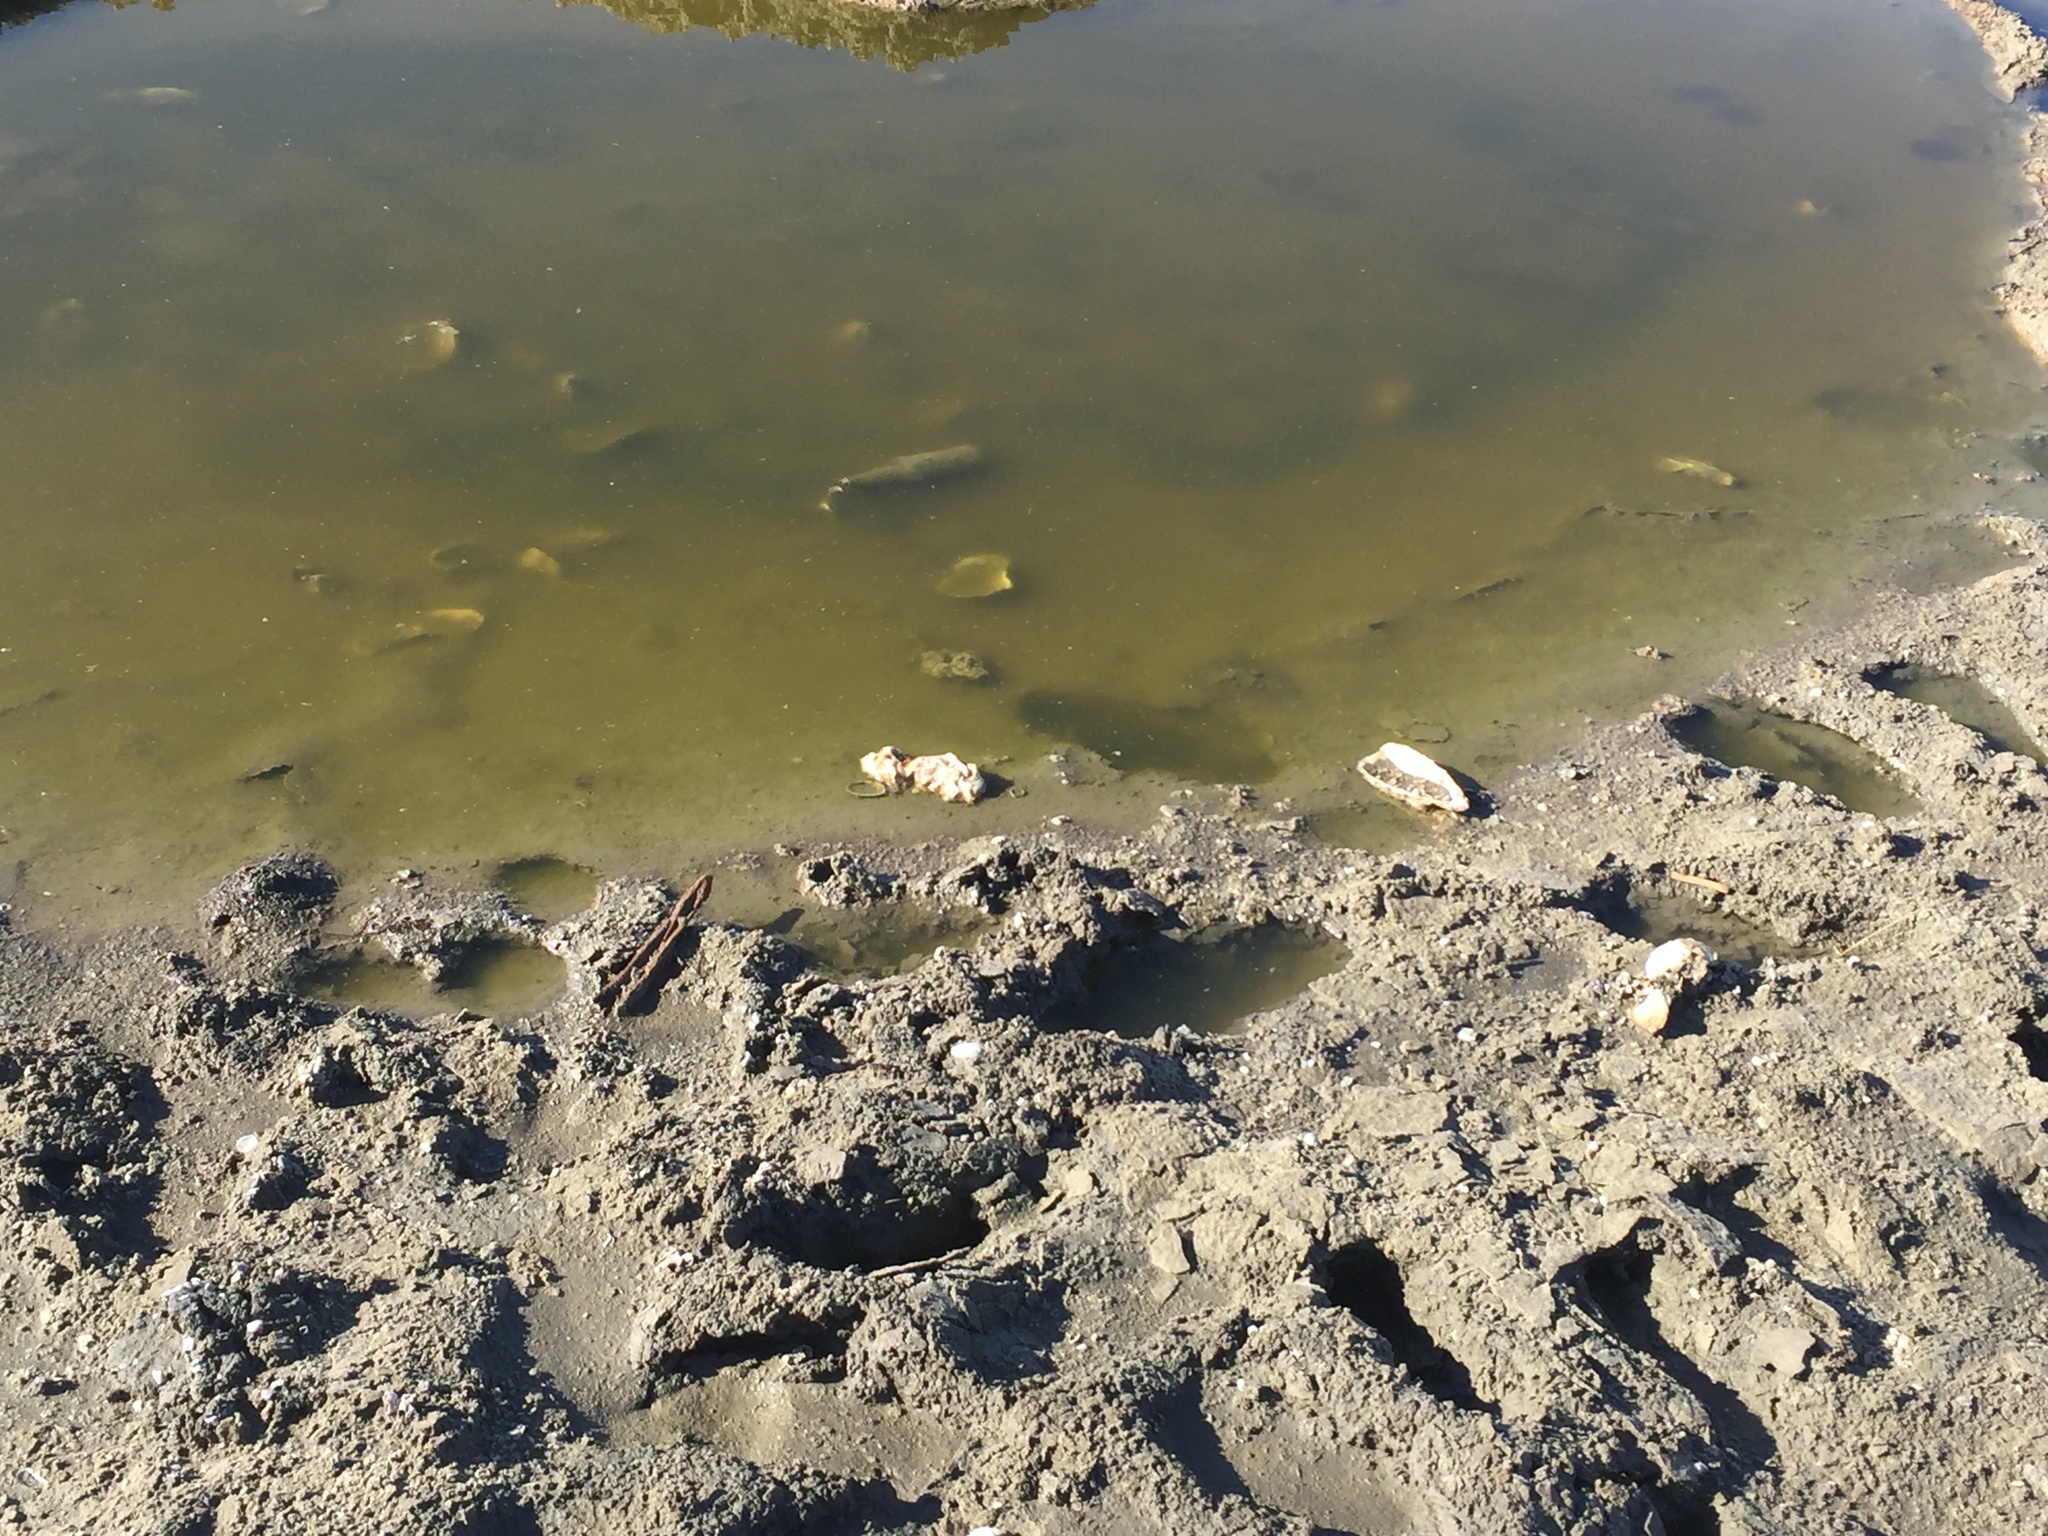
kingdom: Animalia
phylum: Mollusca
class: Bivalvia
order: Ostreida
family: Ostreidae
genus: Magallana
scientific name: Magallana gigas
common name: Pacific oyster
